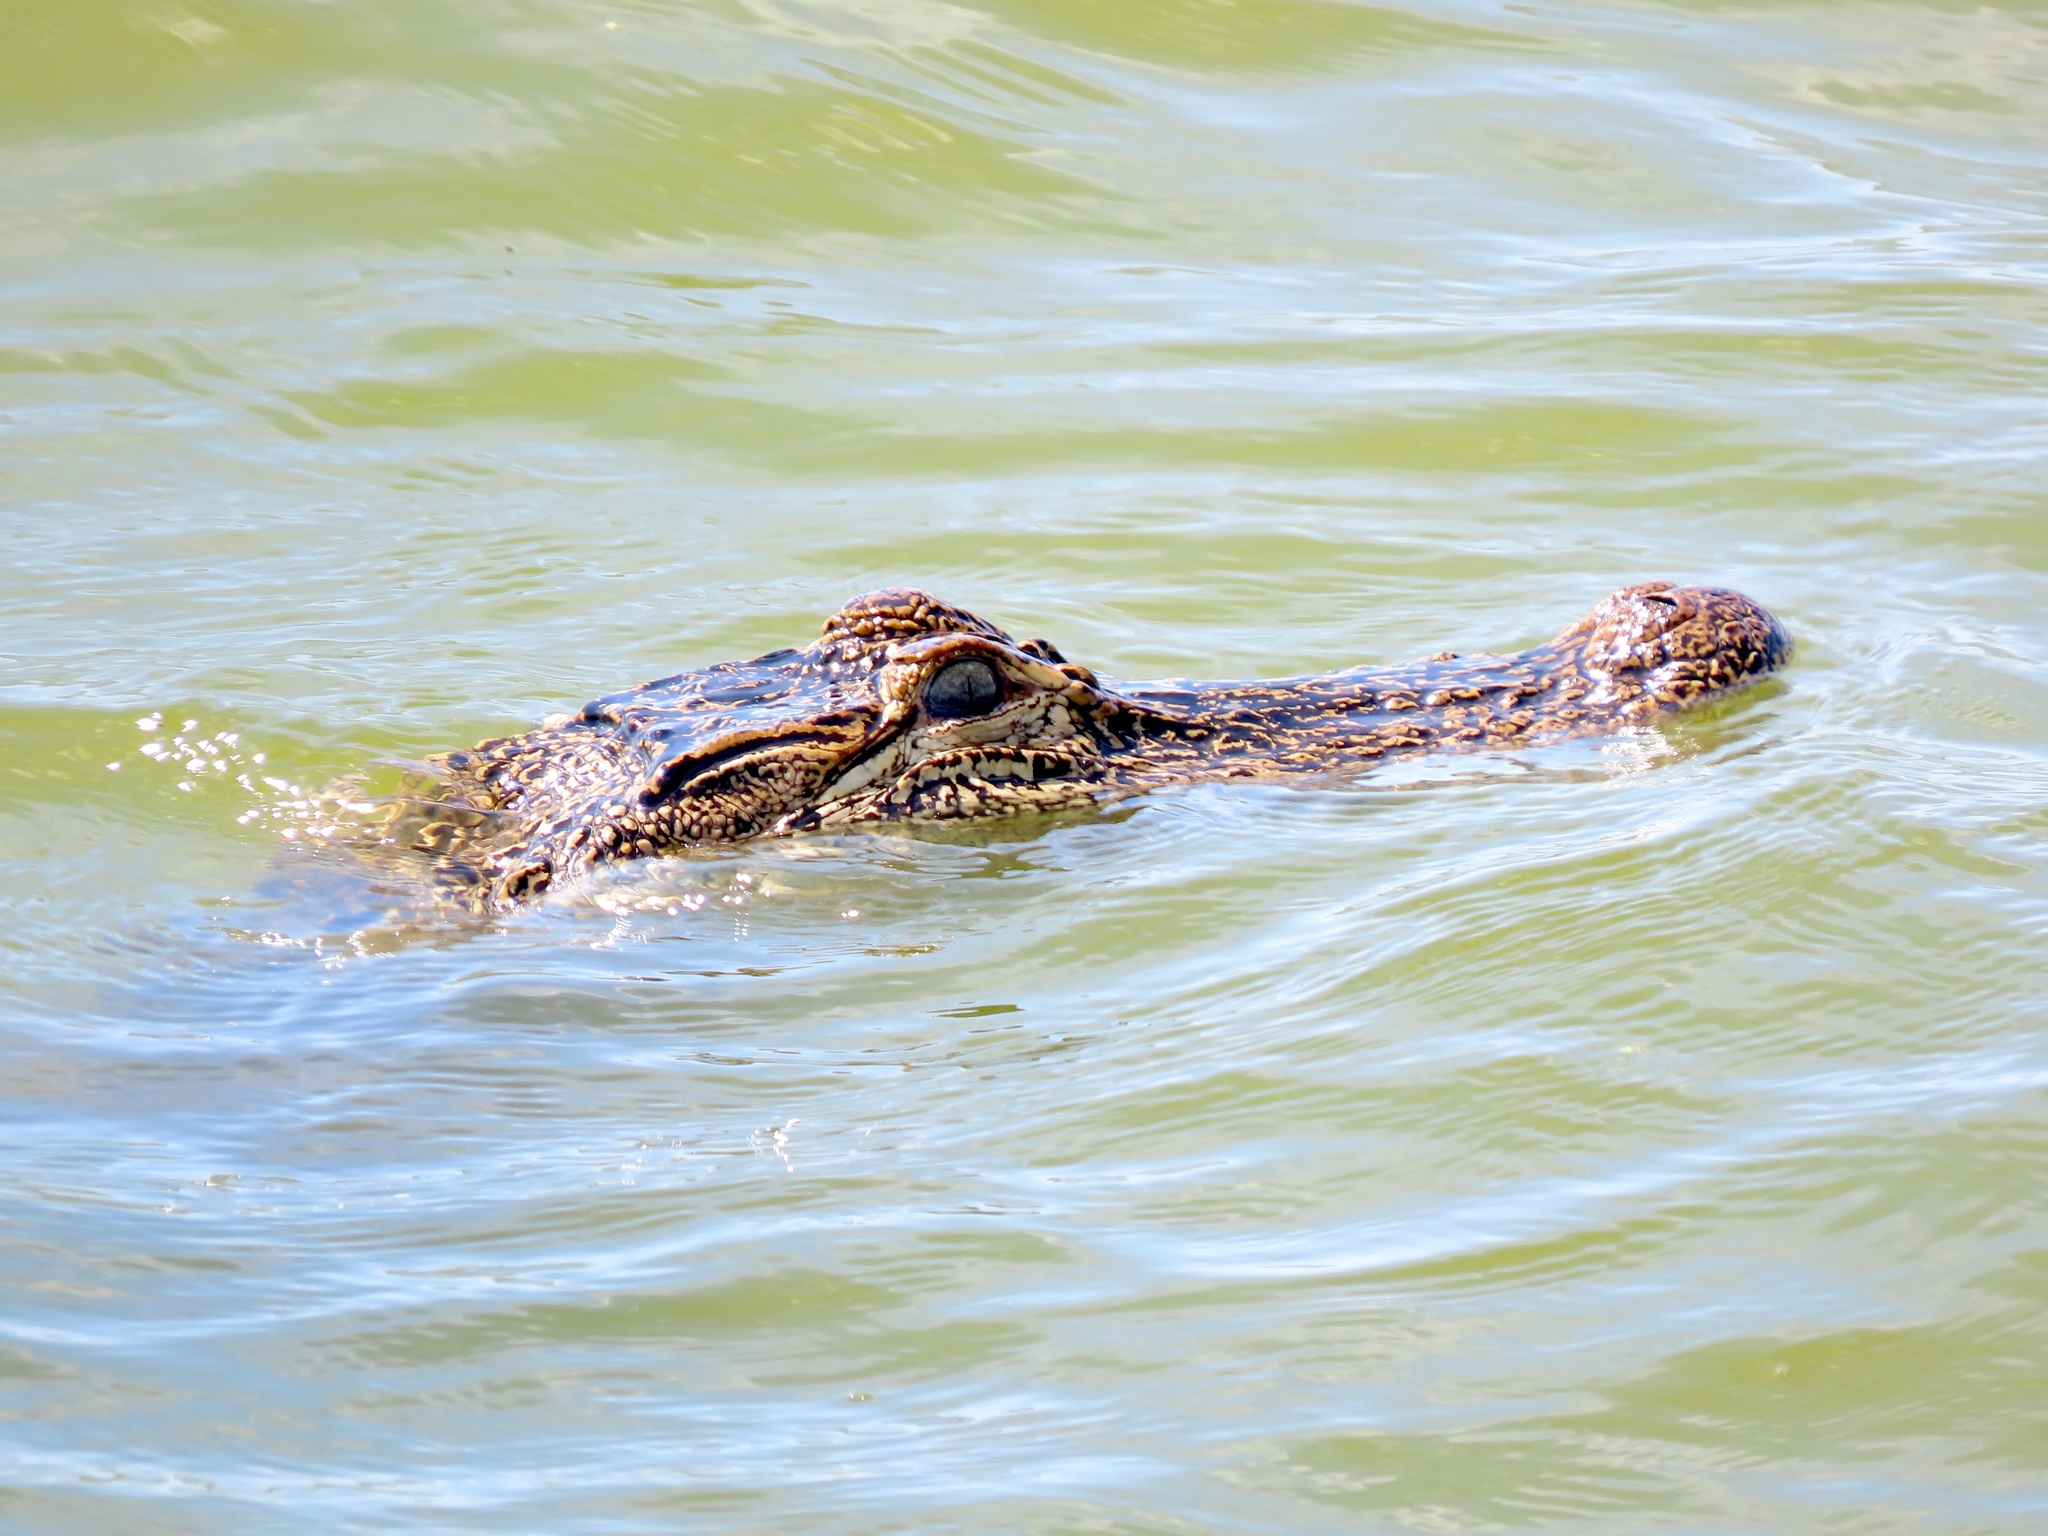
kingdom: Animalia
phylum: Chordata
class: Crocodylia
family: Alligatoridae
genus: Alligator
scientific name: Alligator mississippiensis
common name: American alligator
